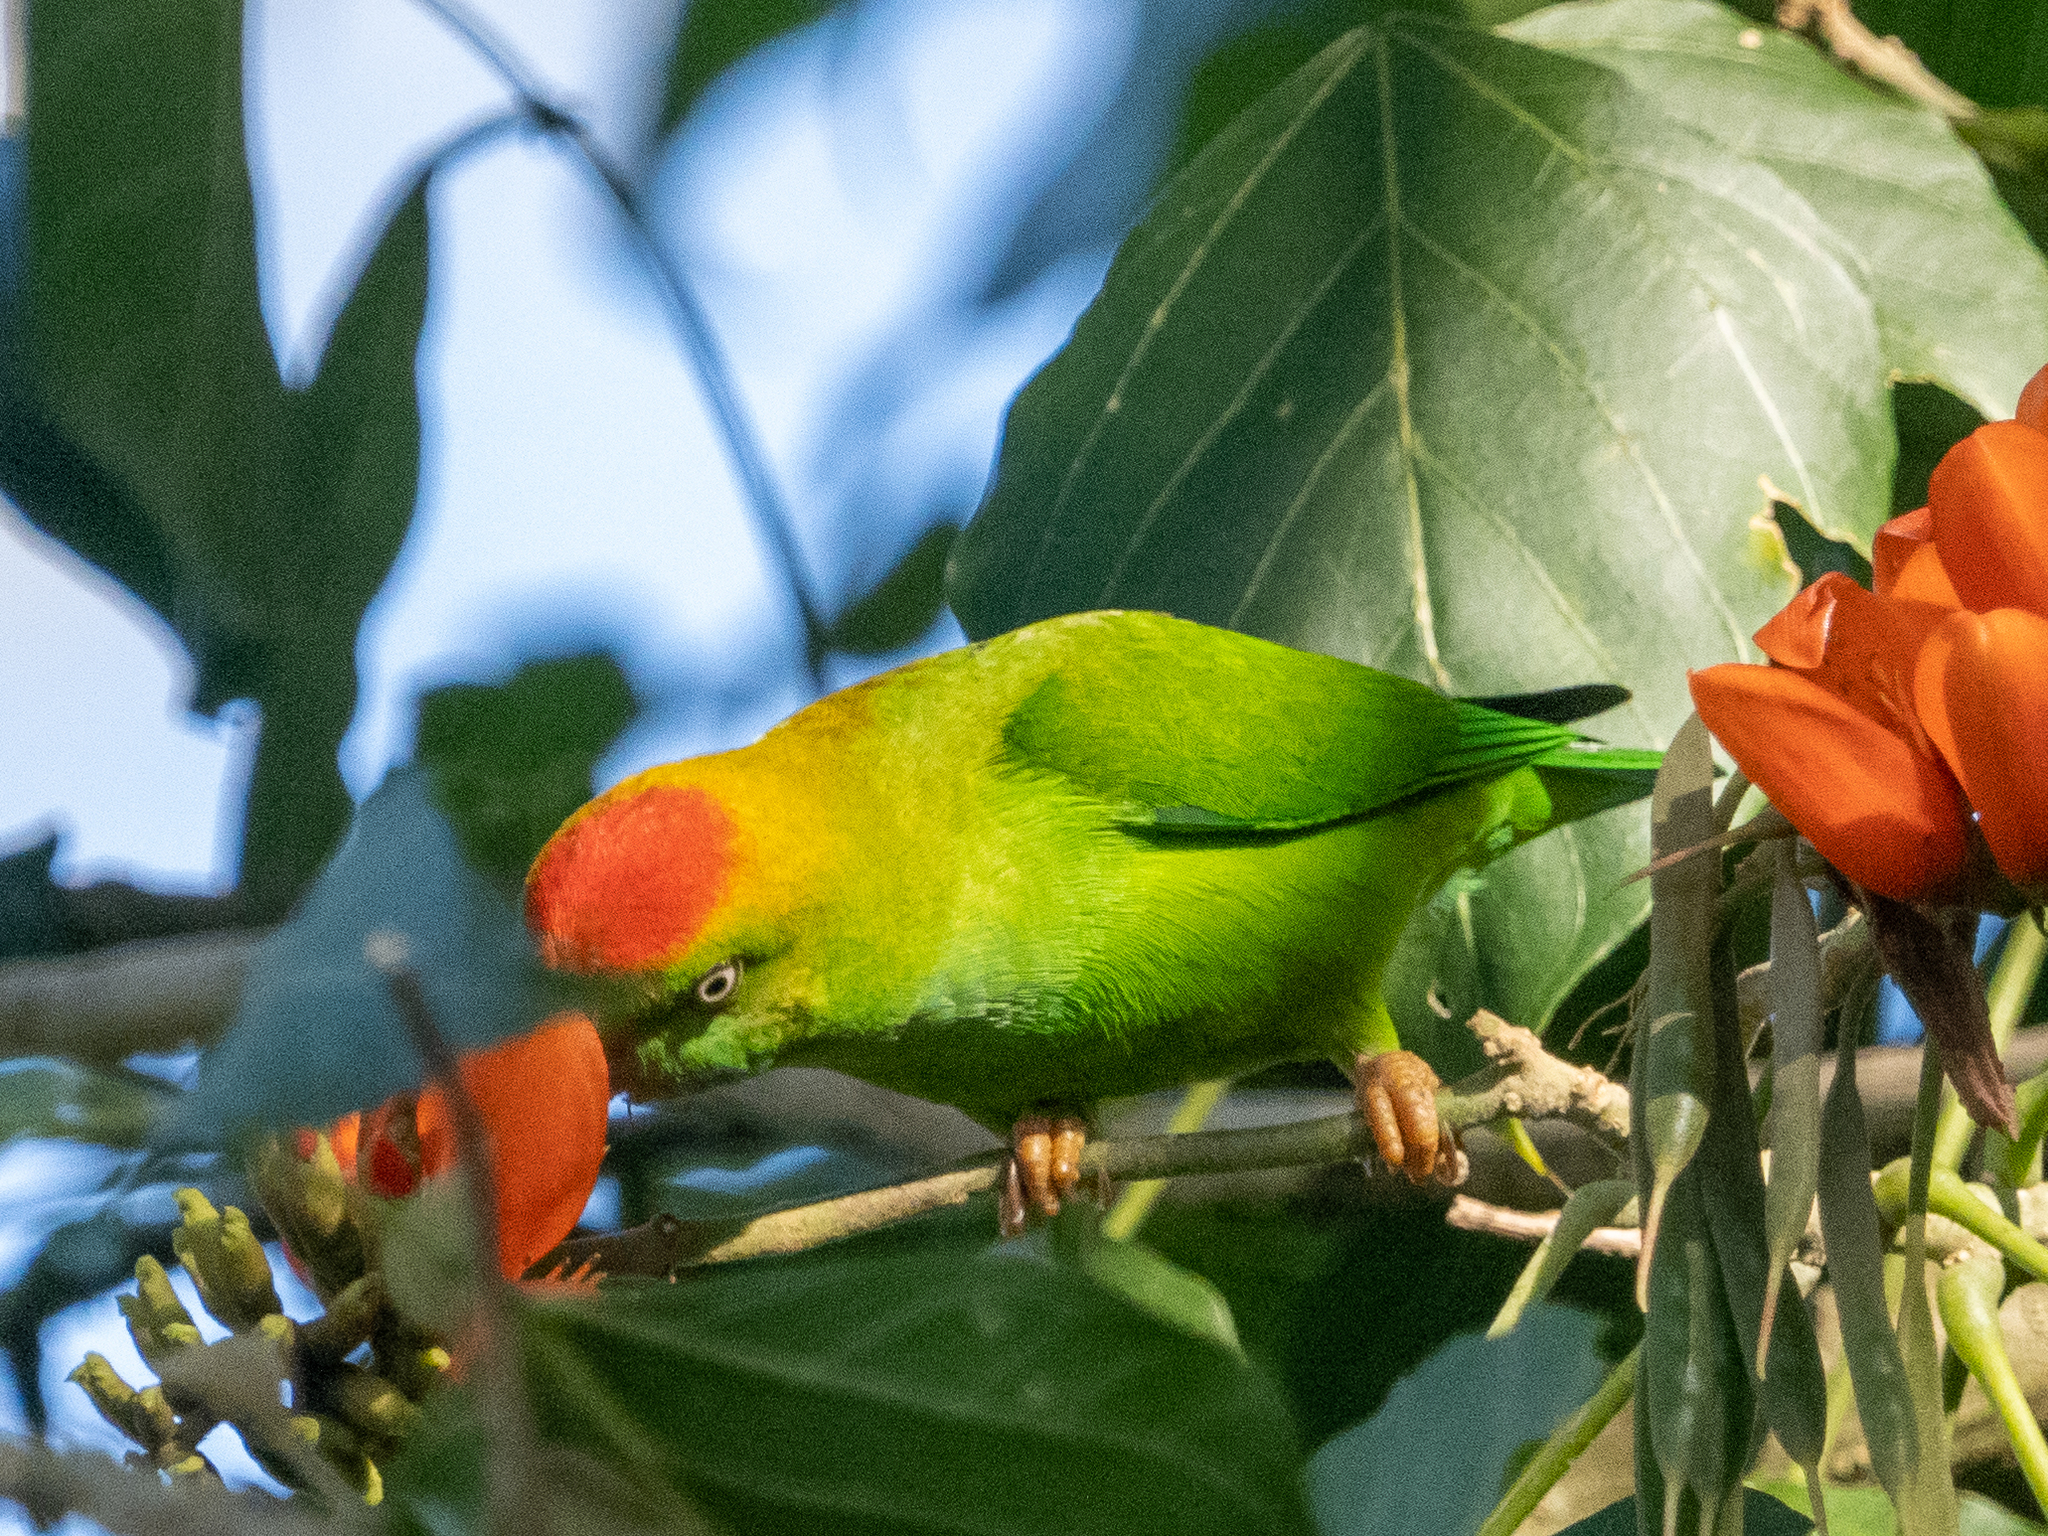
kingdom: Animalia
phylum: Chordata
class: Aves
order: Psittaciformes
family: Psittacidae
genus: Loriculus
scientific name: Loriculus beryllinus
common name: Sri lanka hanging parrot
